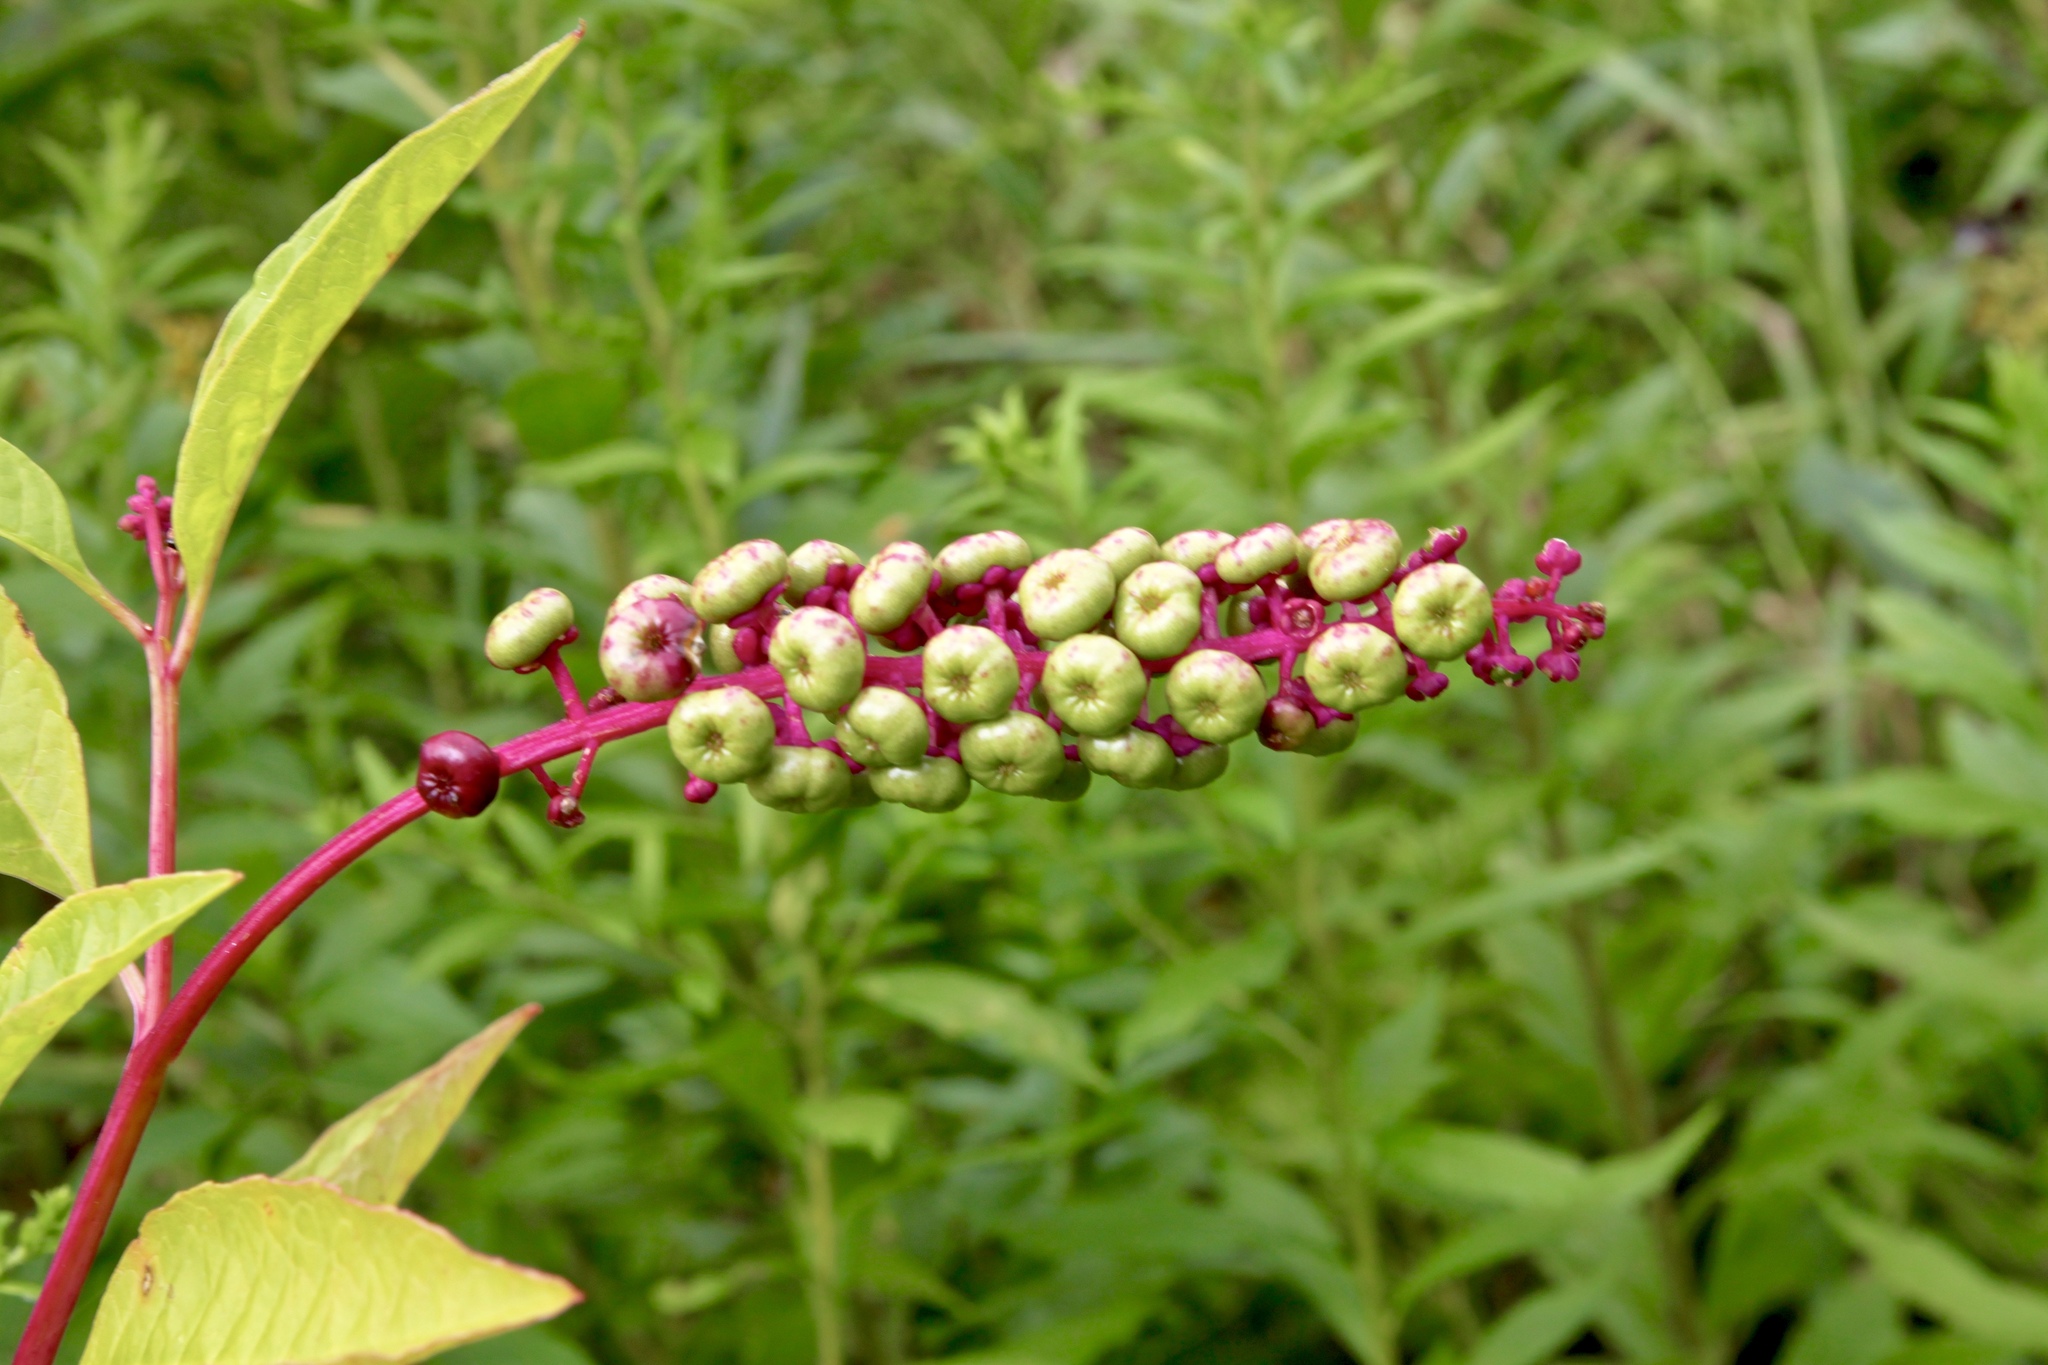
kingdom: Plantae
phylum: Tracheophyta
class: Magnoliopsida
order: Caryophyllales
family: Phytolaccaceae
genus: Phytolacca
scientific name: Phytolacca americana
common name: American pokeweed
